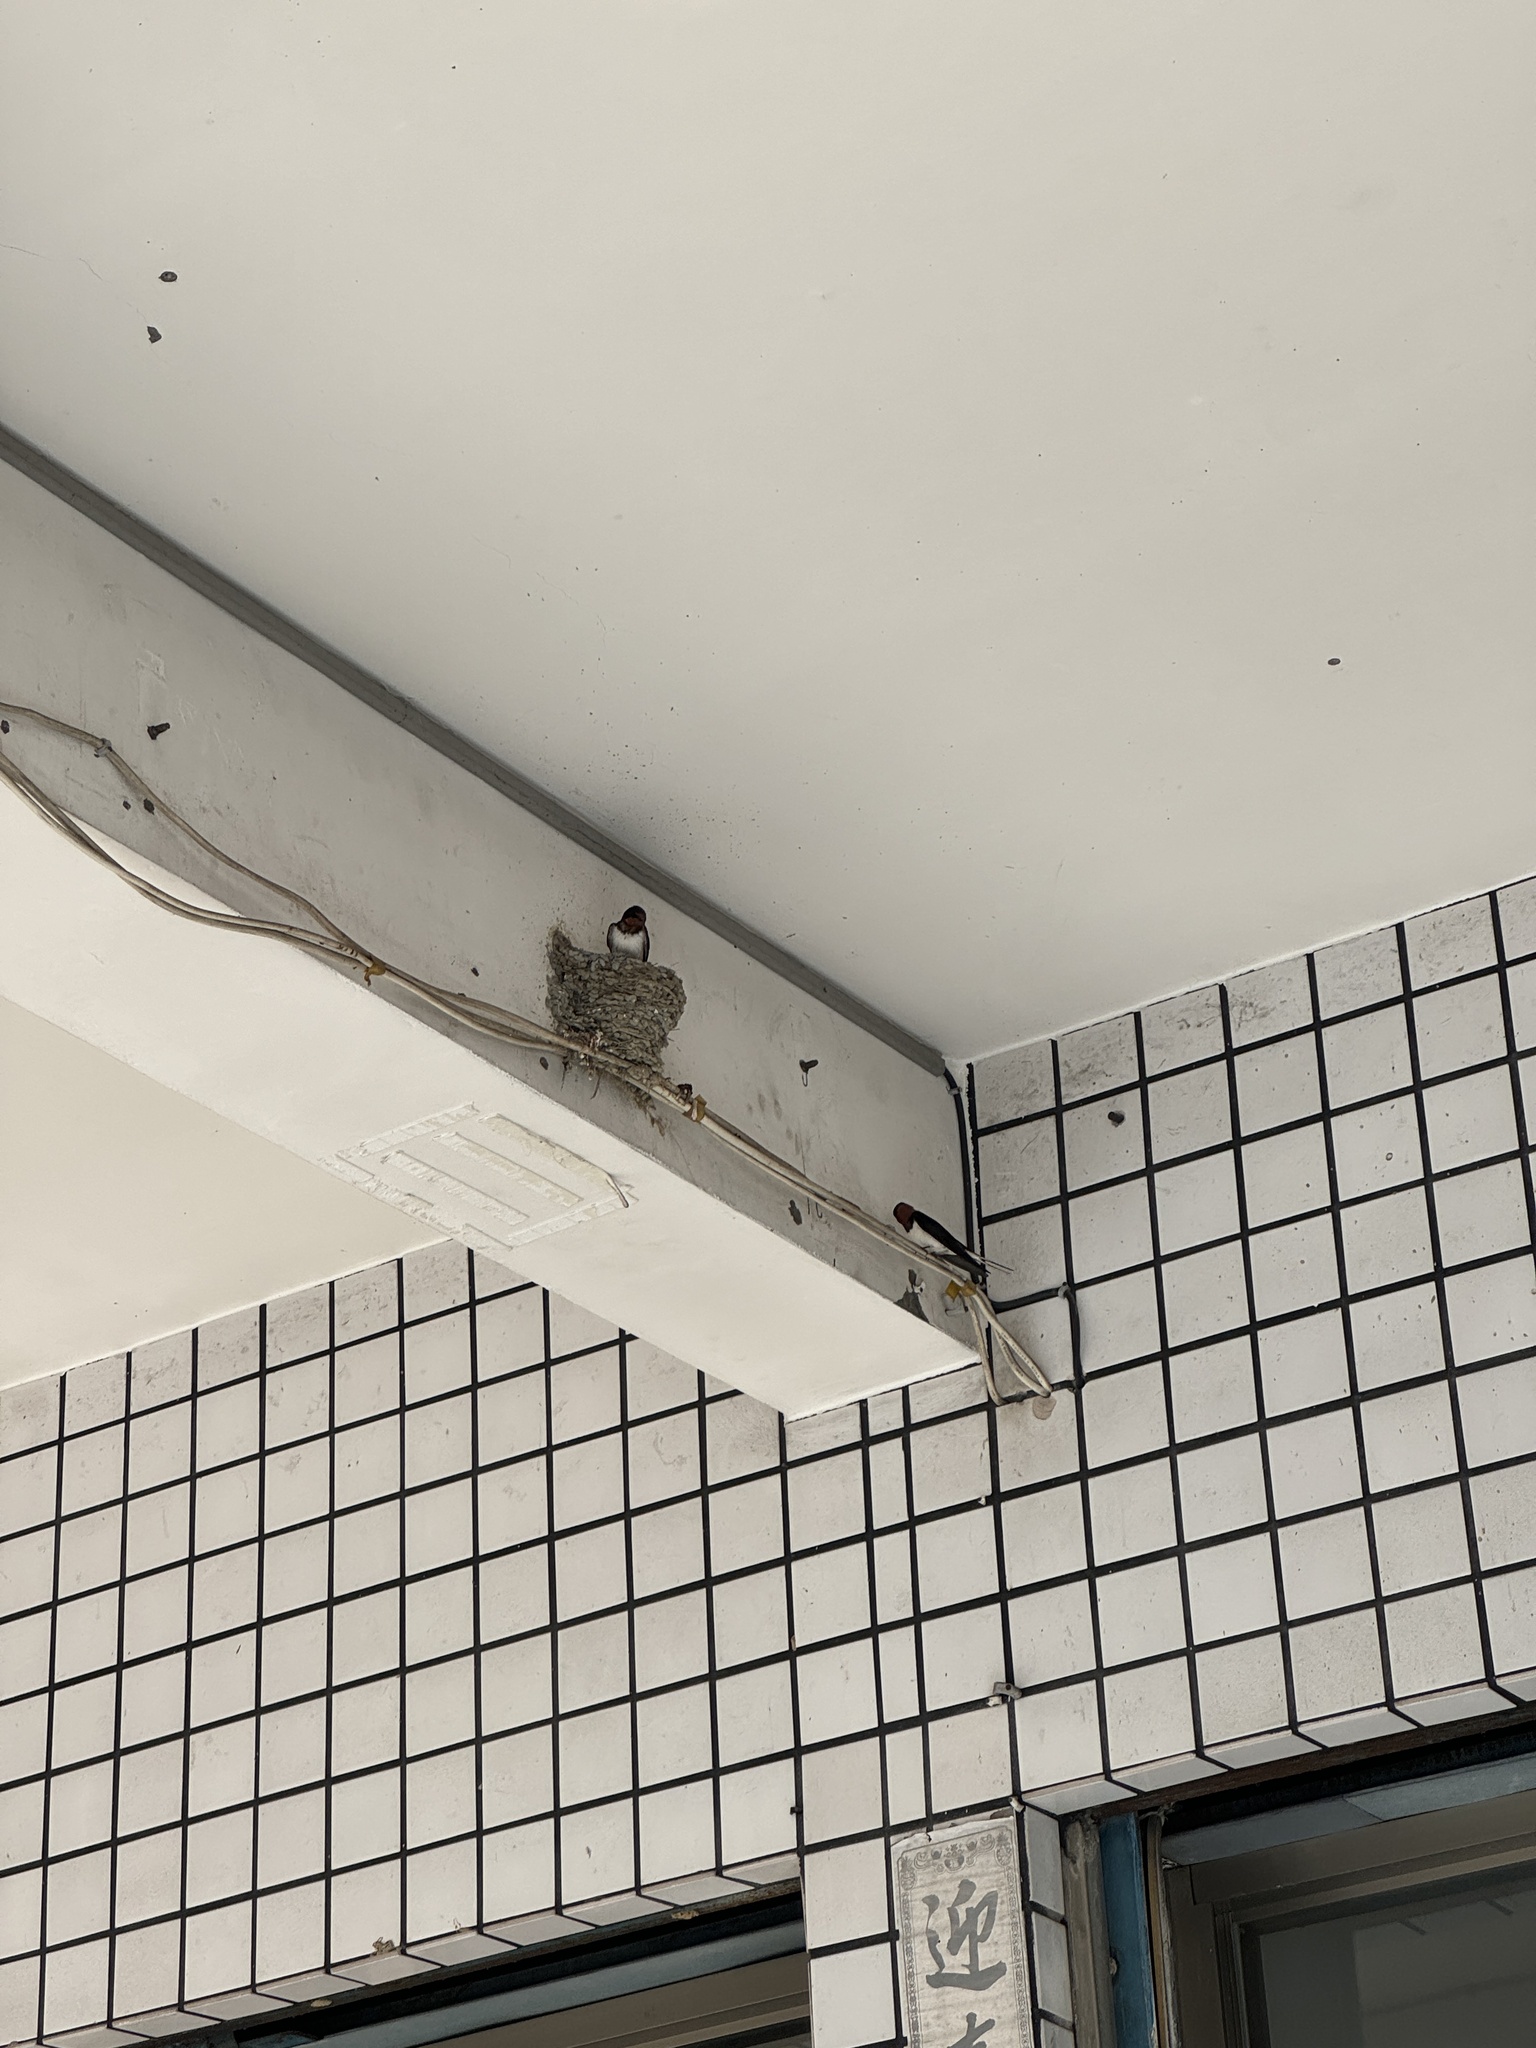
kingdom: Animalia
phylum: Chordata
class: Aves
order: Passeriformes
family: Hirundinidae
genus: Hirundo
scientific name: Hirundo rustica
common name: Barn swallow
